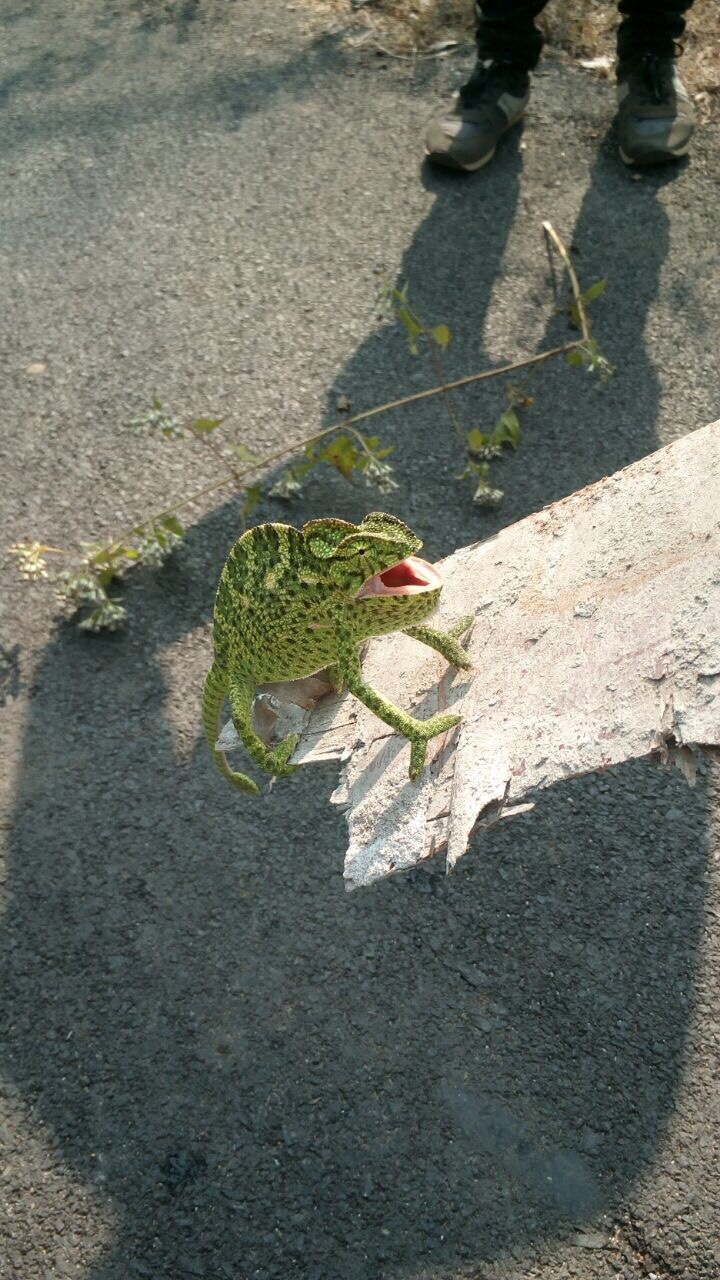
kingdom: Animalia
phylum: Chordata
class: Squamata
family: Chamaeleonidae
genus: Chamaeleo
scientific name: Chamaeleo zeylanicus
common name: Indian chameleon
